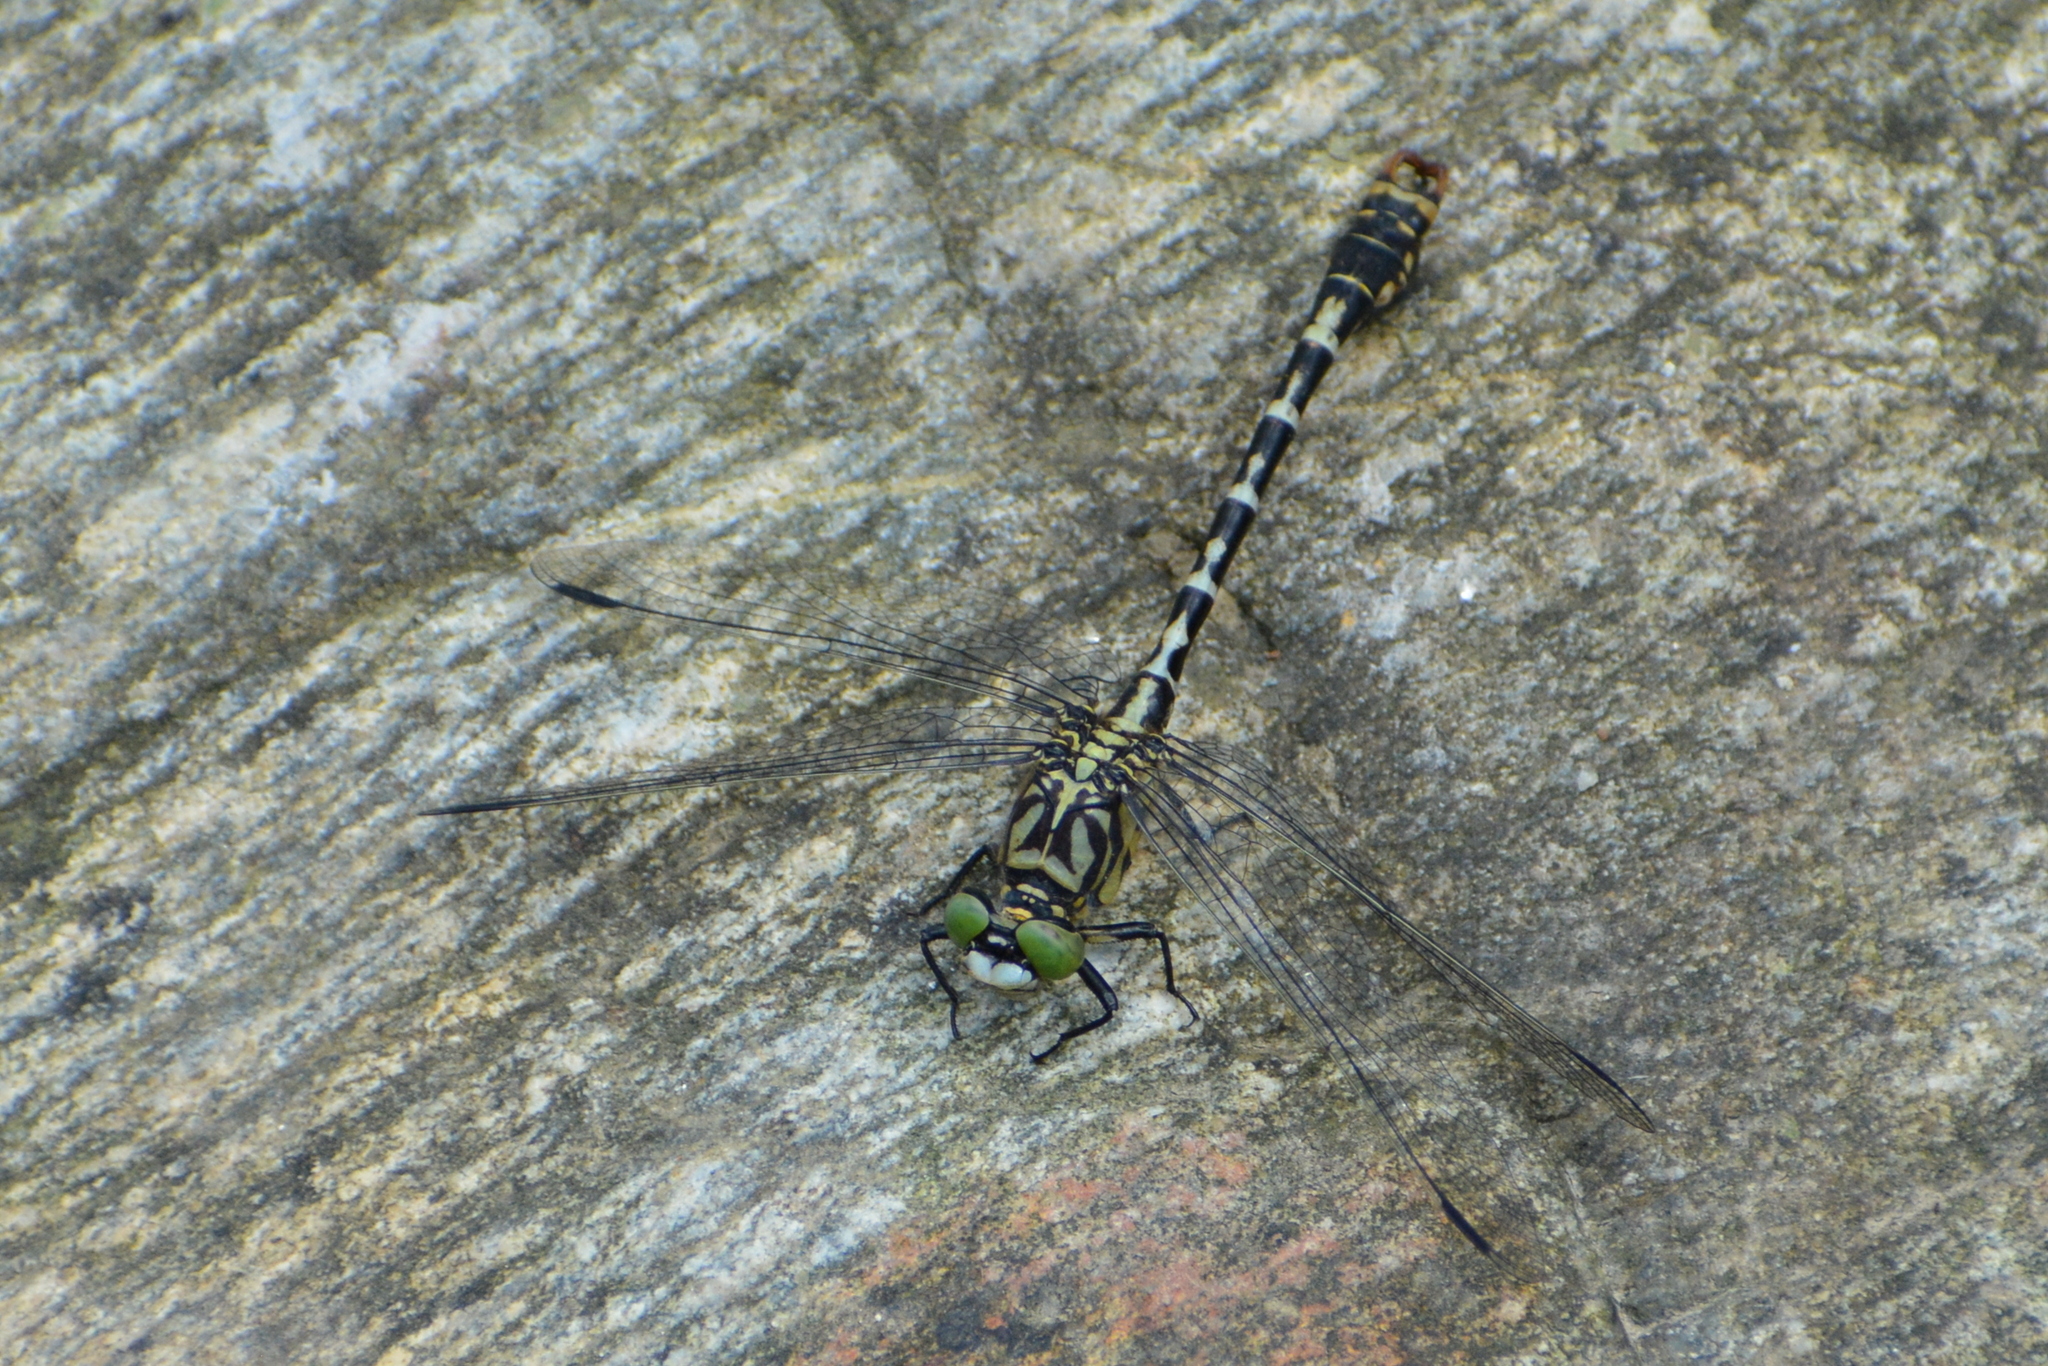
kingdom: Animalia
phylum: Arthropoda
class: Insecta
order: Odonata
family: Gomphidae
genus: Onychogomphus
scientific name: Onychogomphus forcipatus
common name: Small pincertail
